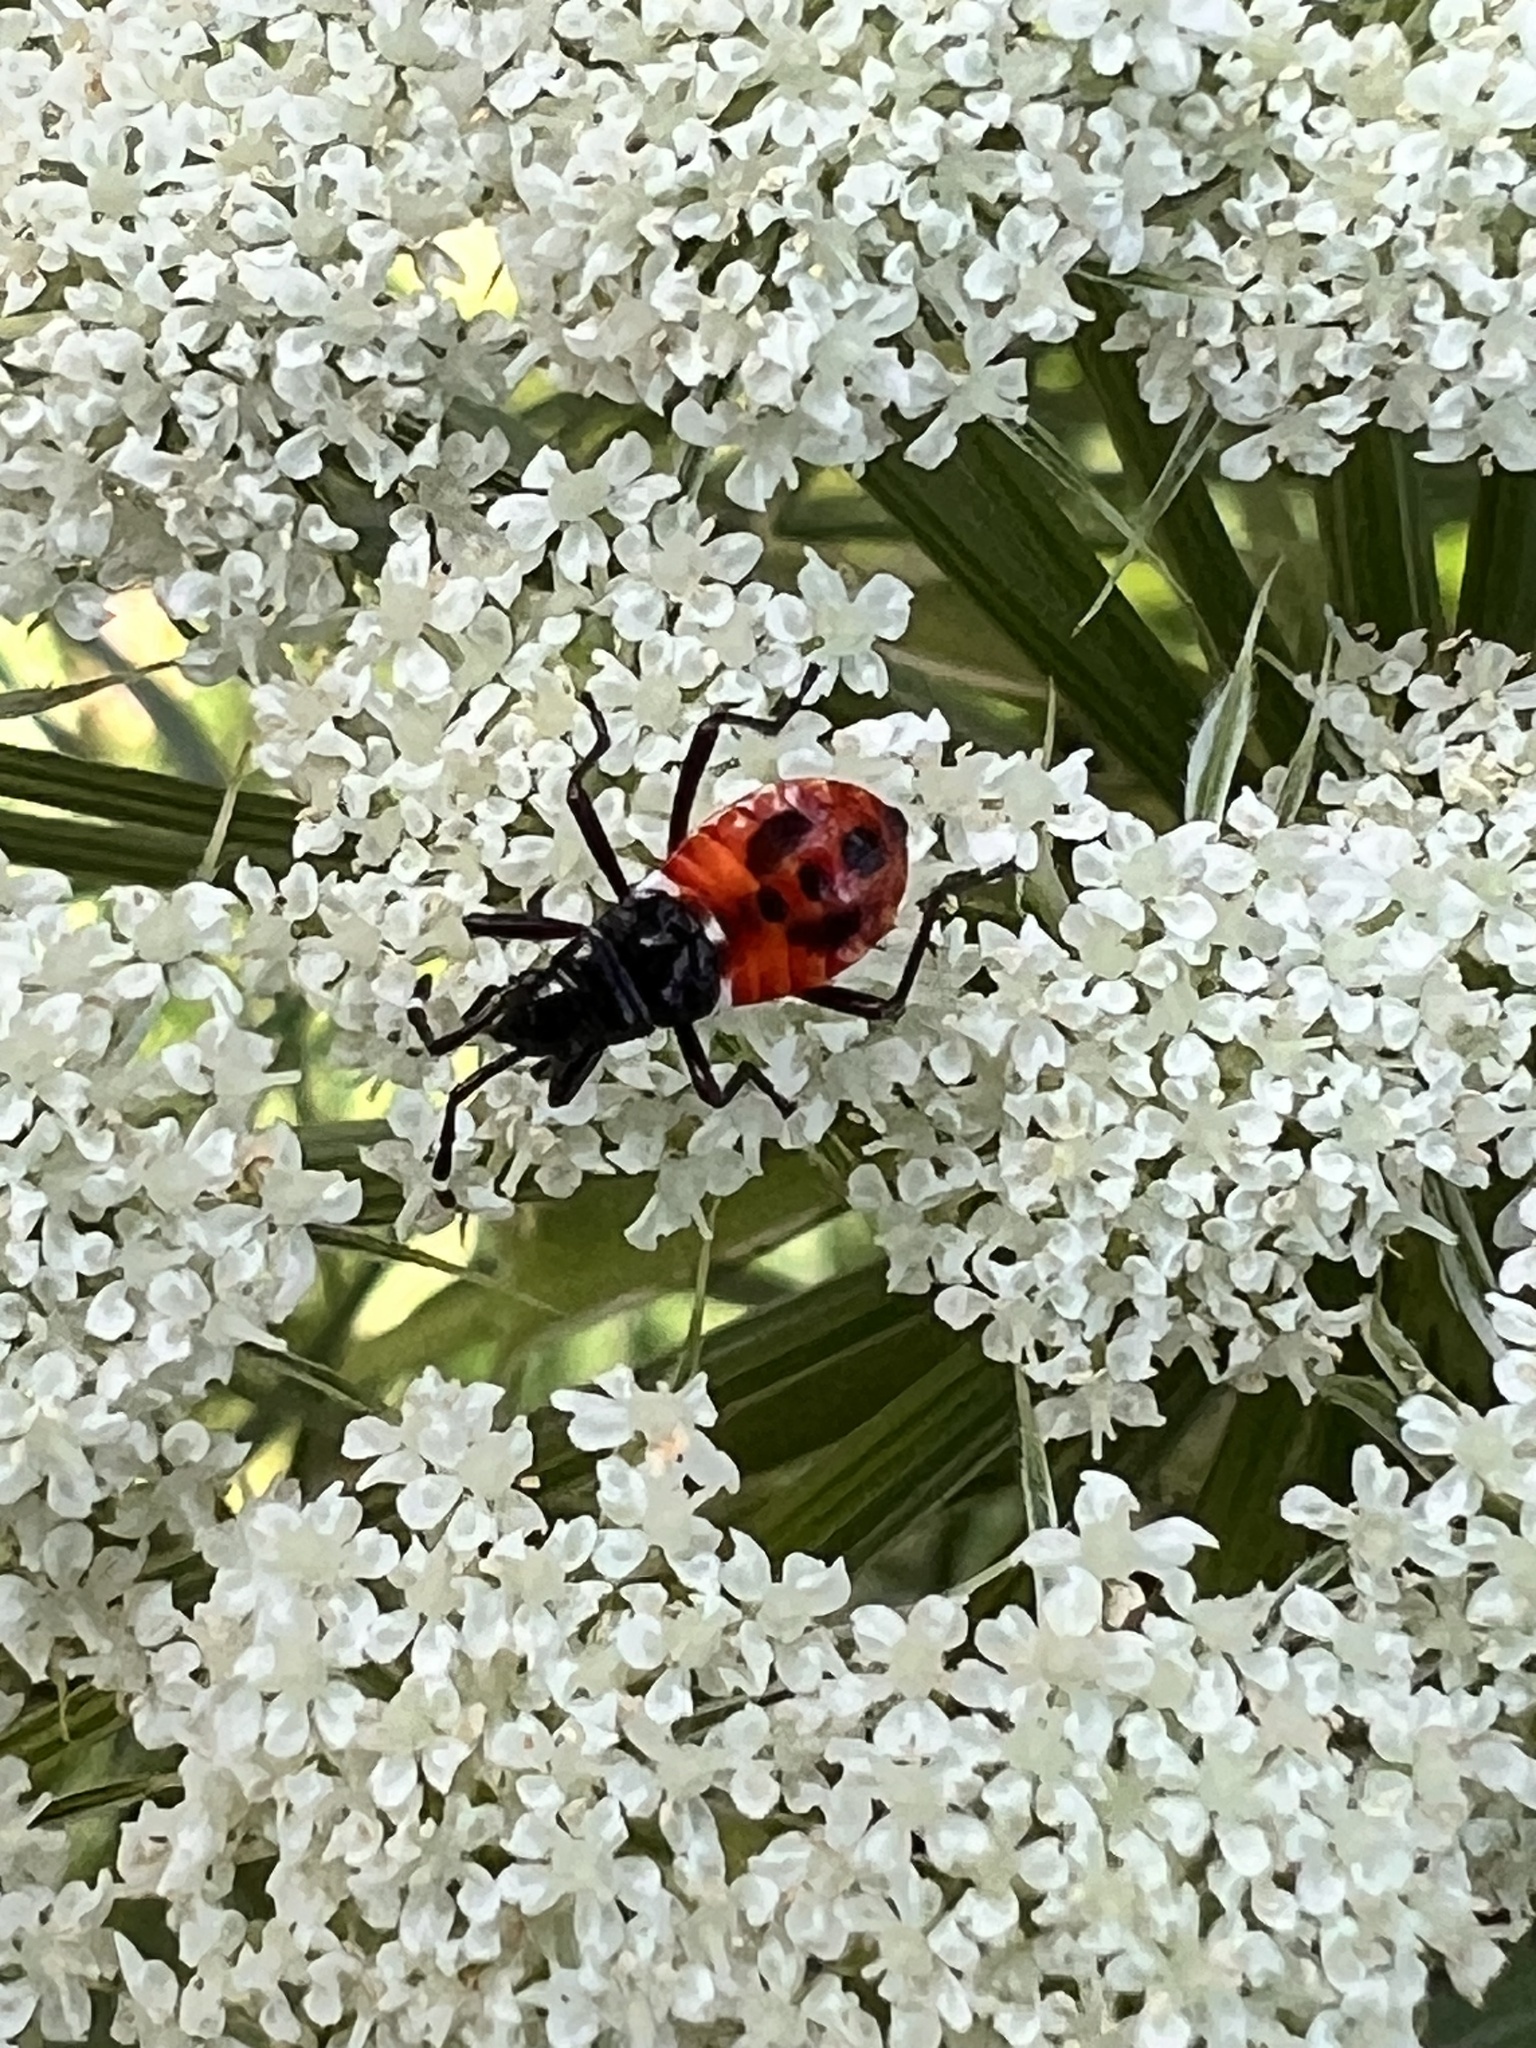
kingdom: Animalia
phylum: Arthropoda
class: Insecta
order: Hemiptera
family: Pyrrhocoridae
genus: Dindymus
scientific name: Dindymus
